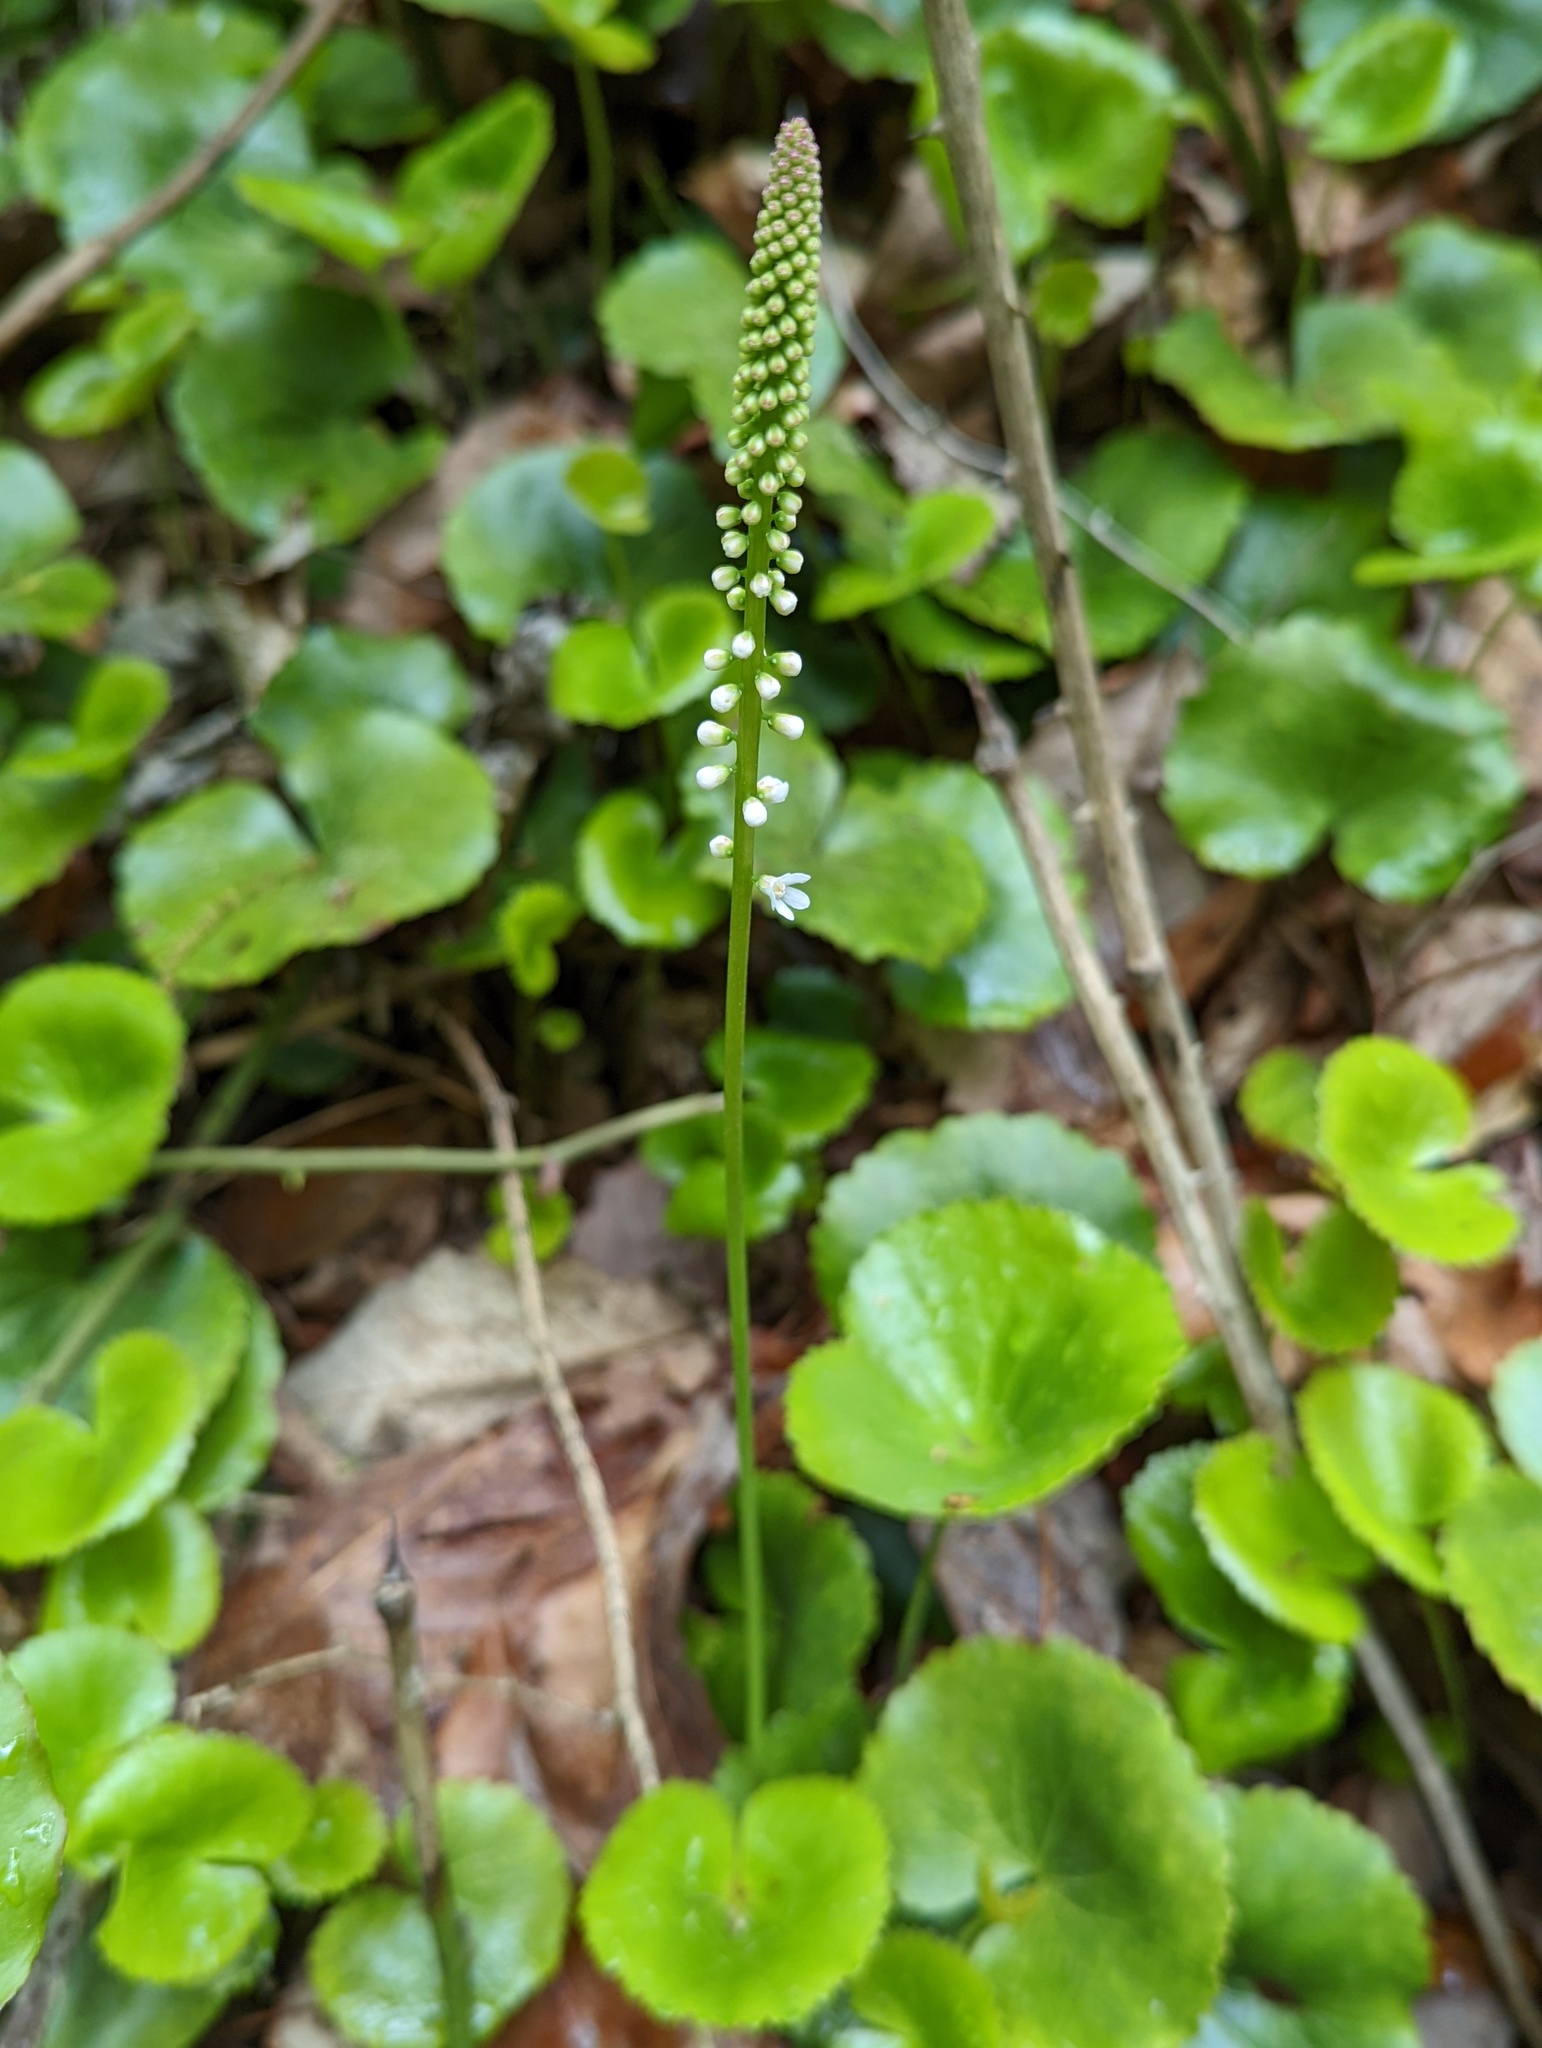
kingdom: Plantae
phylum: Tracheophyta
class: Magnoliopsida
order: Ericales
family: Diapensiaceae
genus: Galax
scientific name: Galax urceolata
